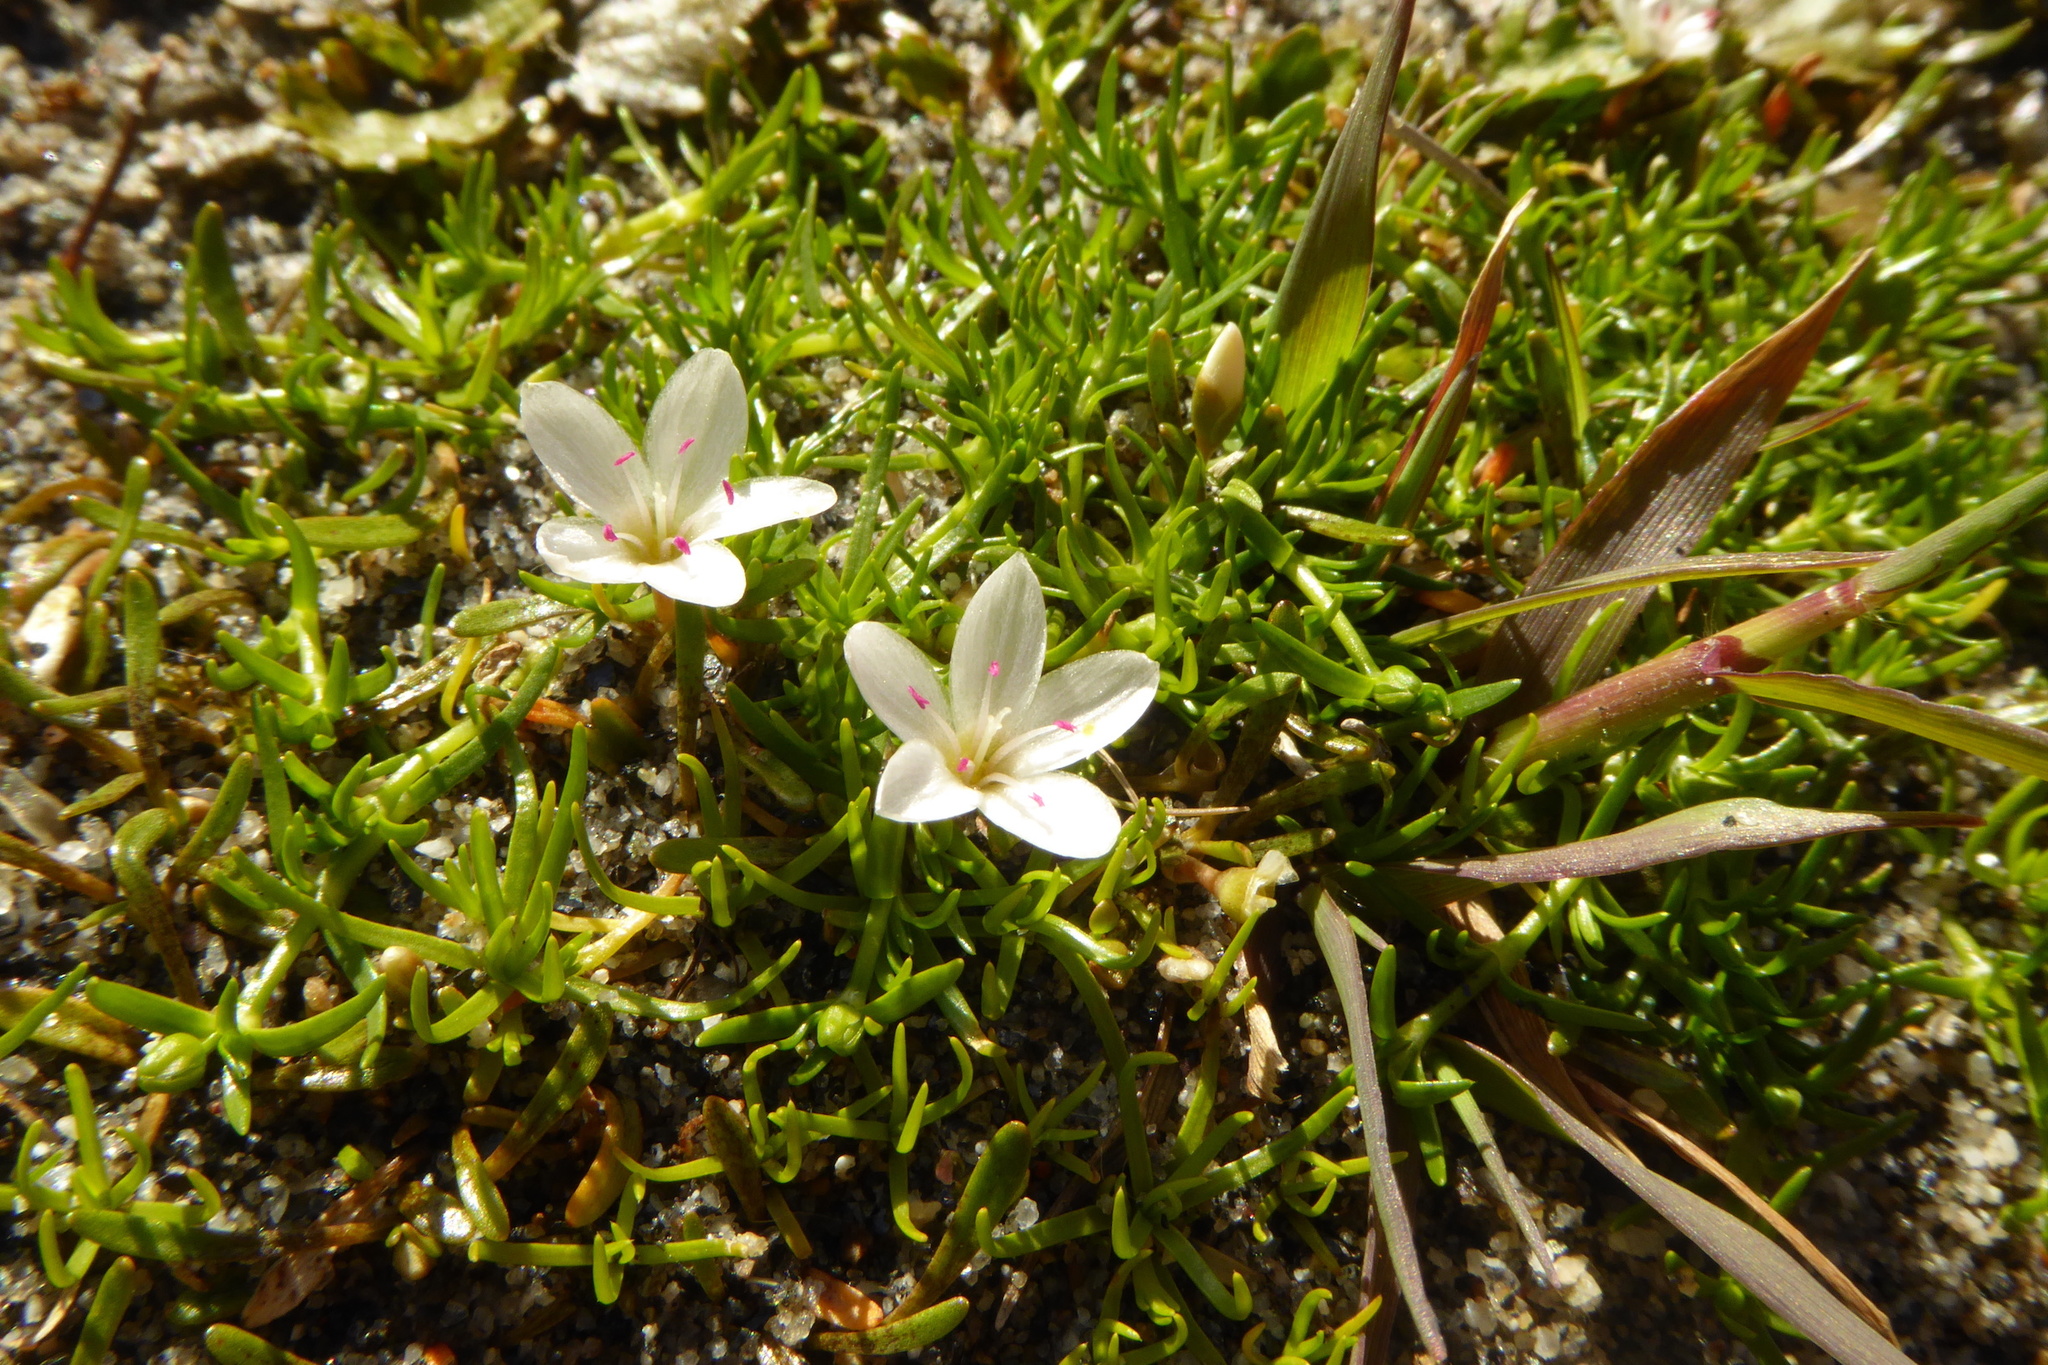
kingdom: Plantae
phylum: Tracheophyta
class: Magnoliopsida
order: Caryophyllales
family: Montiaceae
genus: Montia
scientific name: Montia sessiliflora
